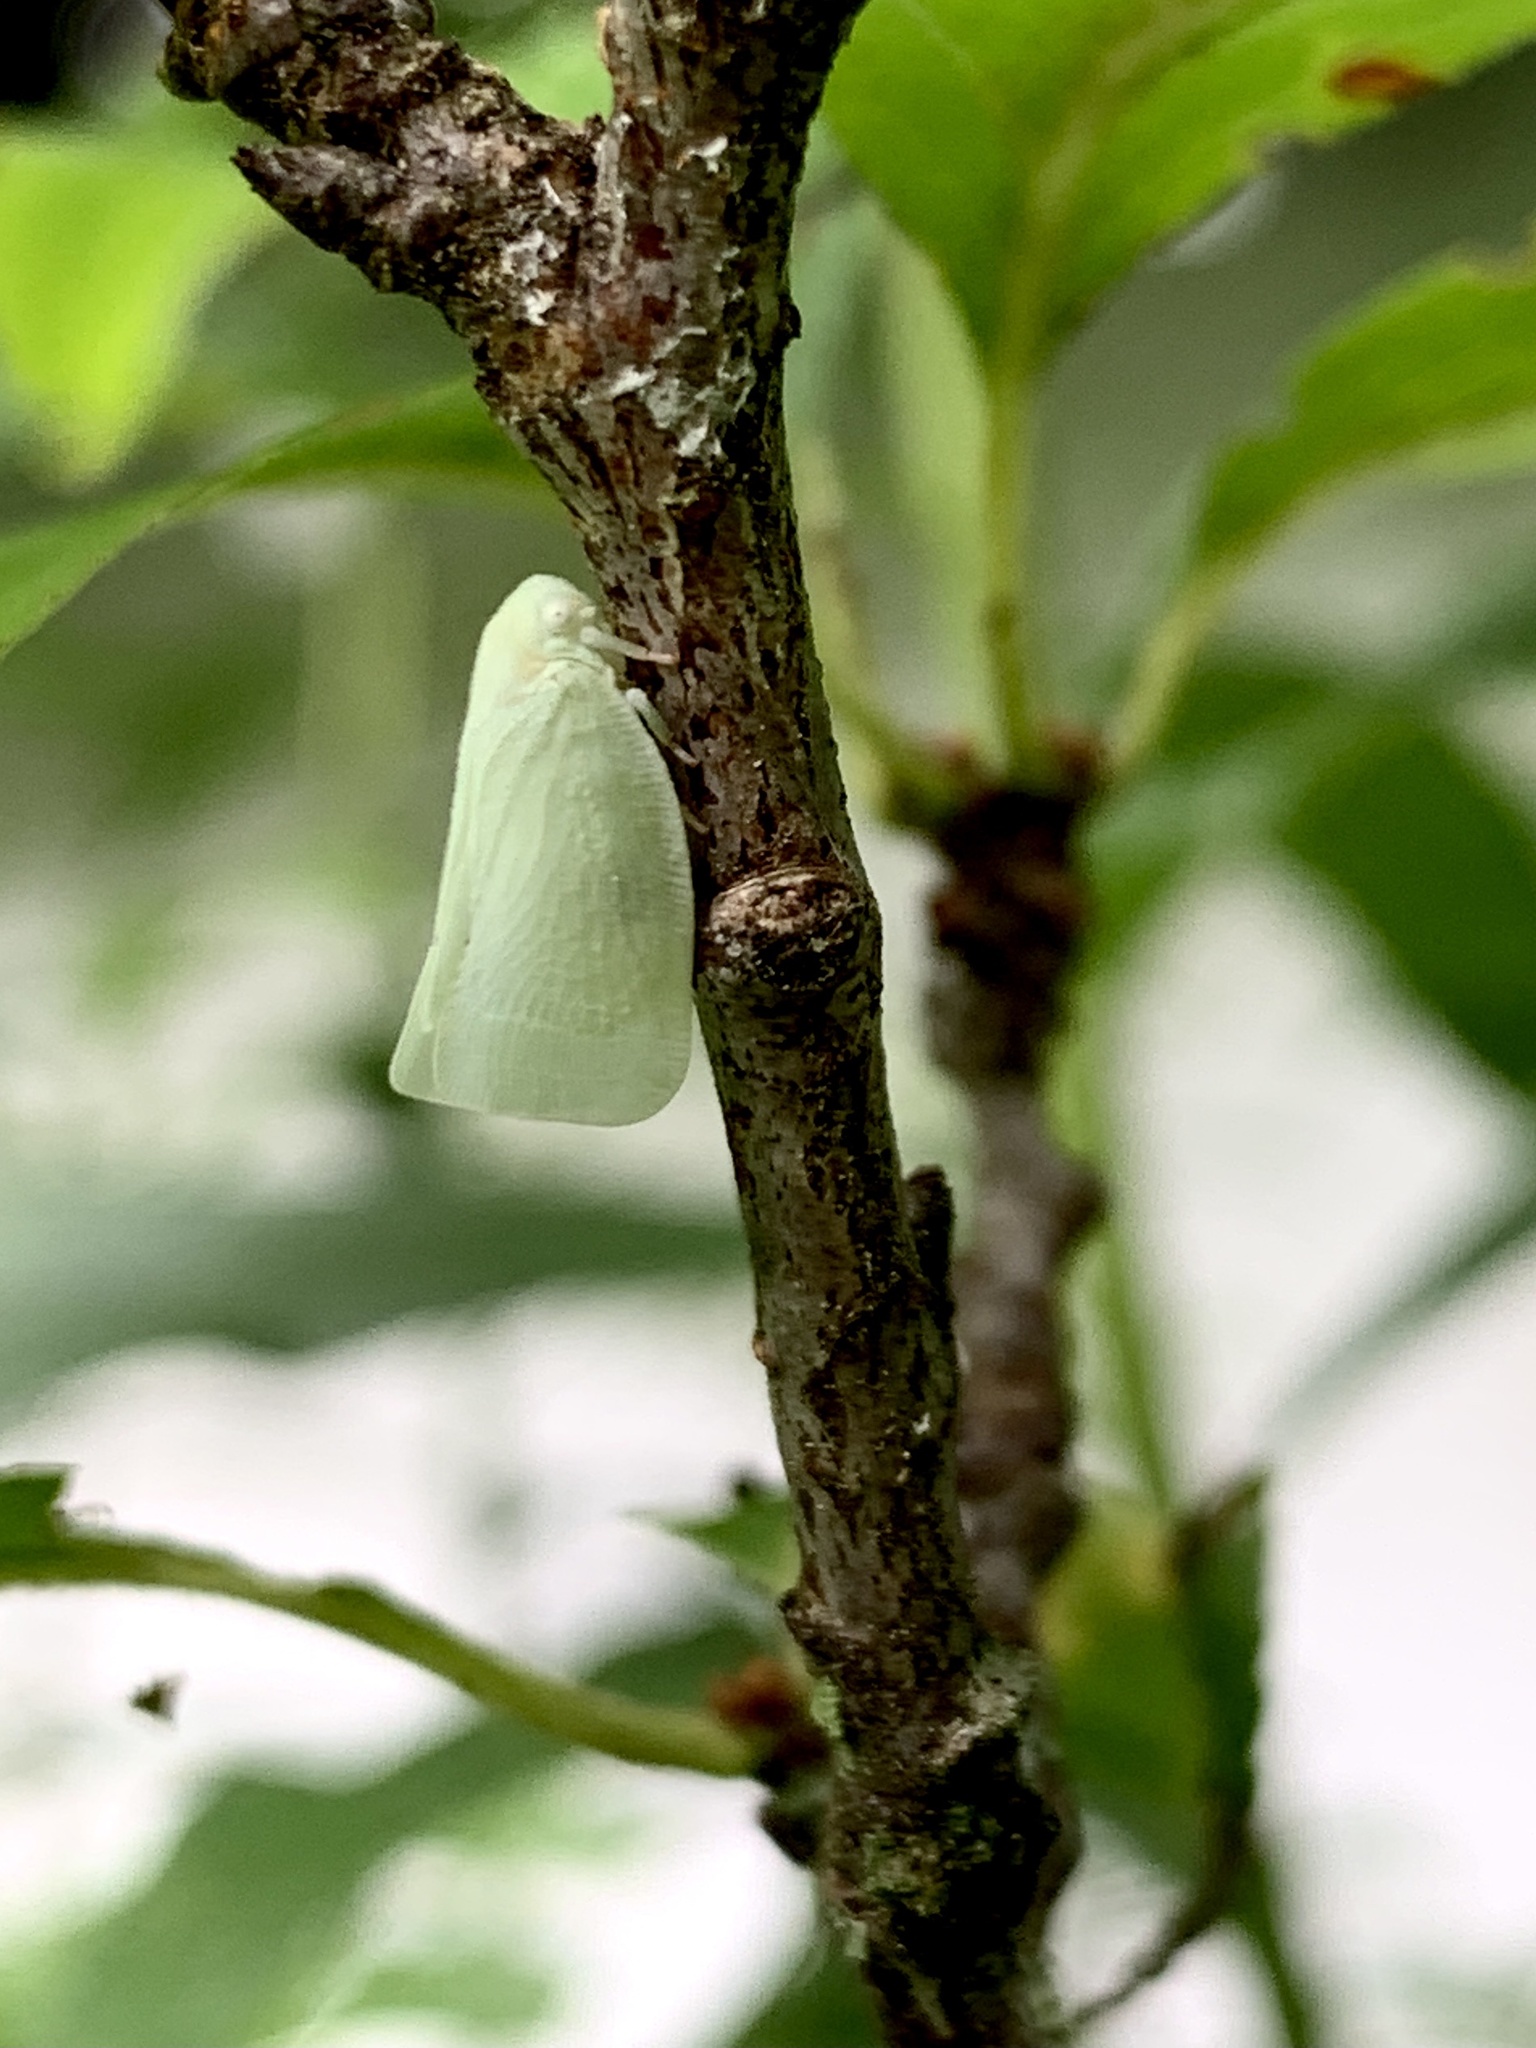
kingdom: Animalia
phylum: Arthropoda
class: Insecta
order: Hemiptera
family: Flatidae
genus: Flatormenis
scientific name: Flatormenis proxima
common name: Northern flatid planthopper
